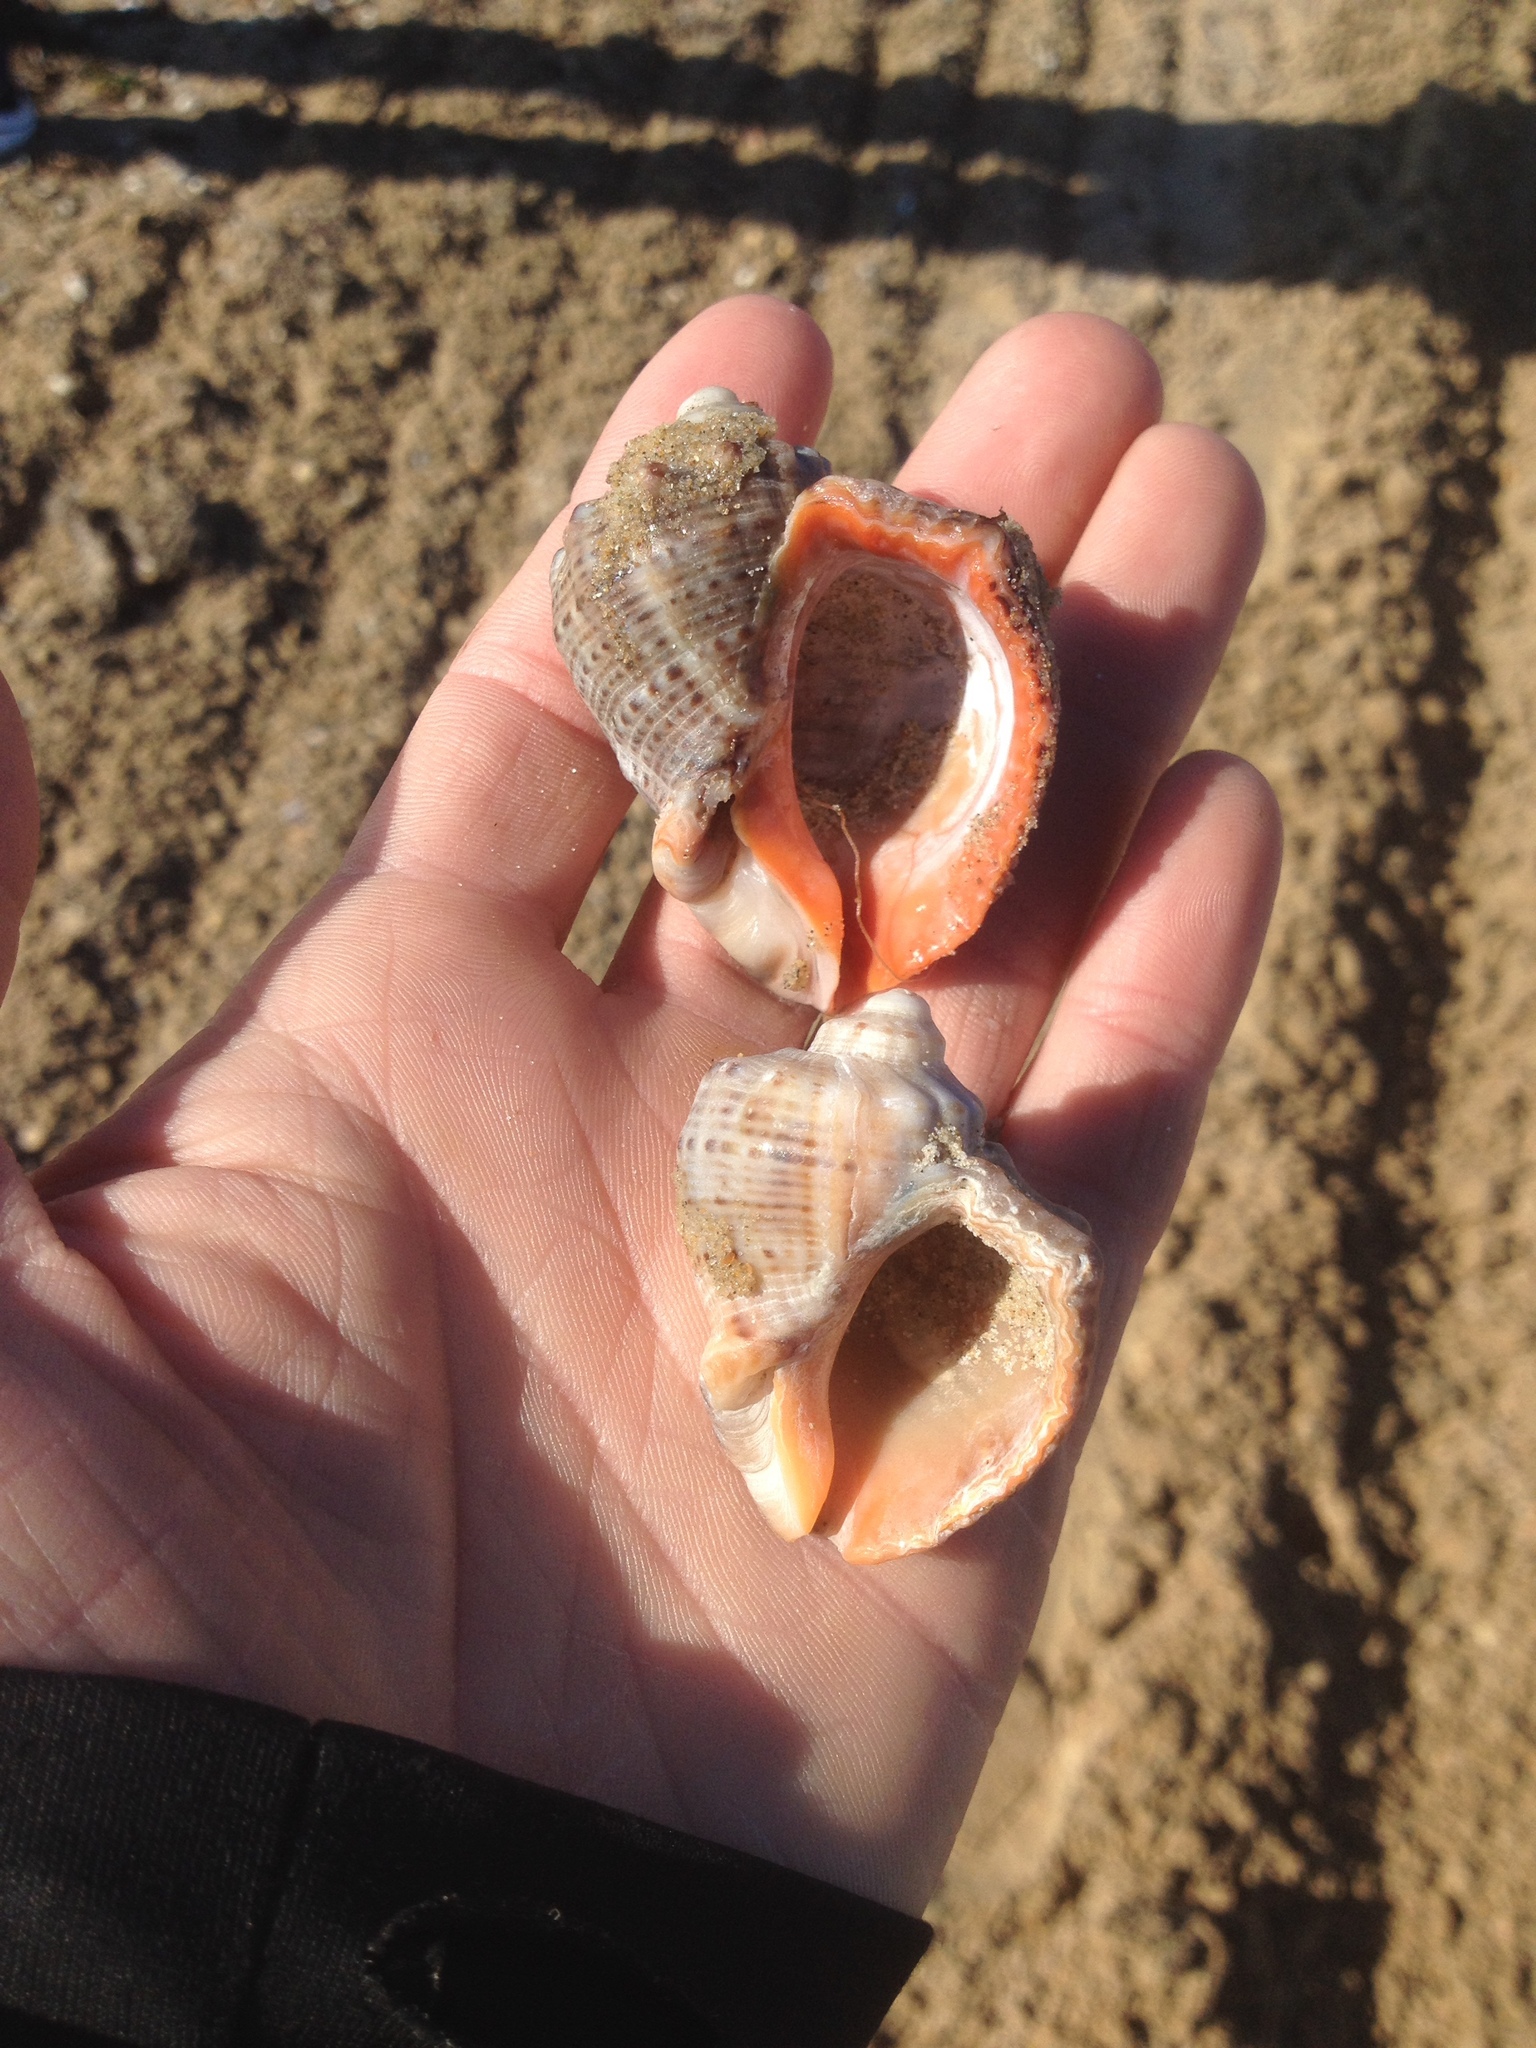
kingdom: Animalia
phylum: Mollusca
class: Gastropoda
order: Neogastropoda
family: Muricidae
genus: Rapana
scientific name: Rapana venosa
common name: Veined rapa whelk
